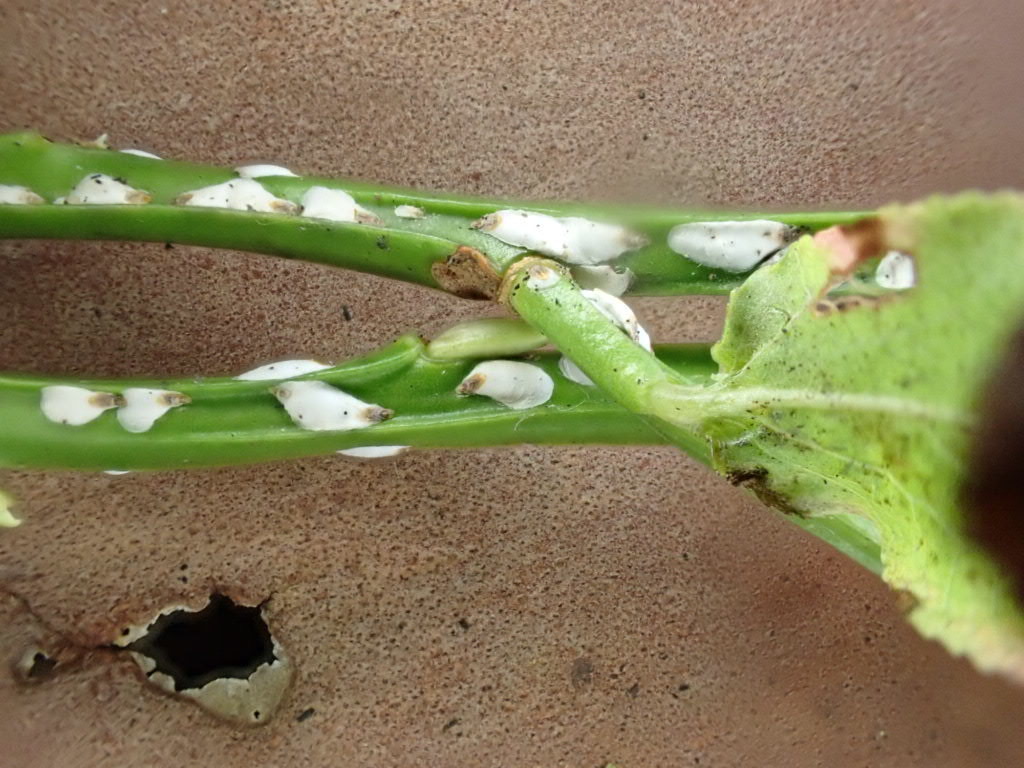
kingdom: Animalia
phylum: Arthropoda
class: Insecta
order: Hemiptera
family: Diaspididae
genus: Chionaspis
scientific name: Chionaspis salicis
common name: Willow scale
